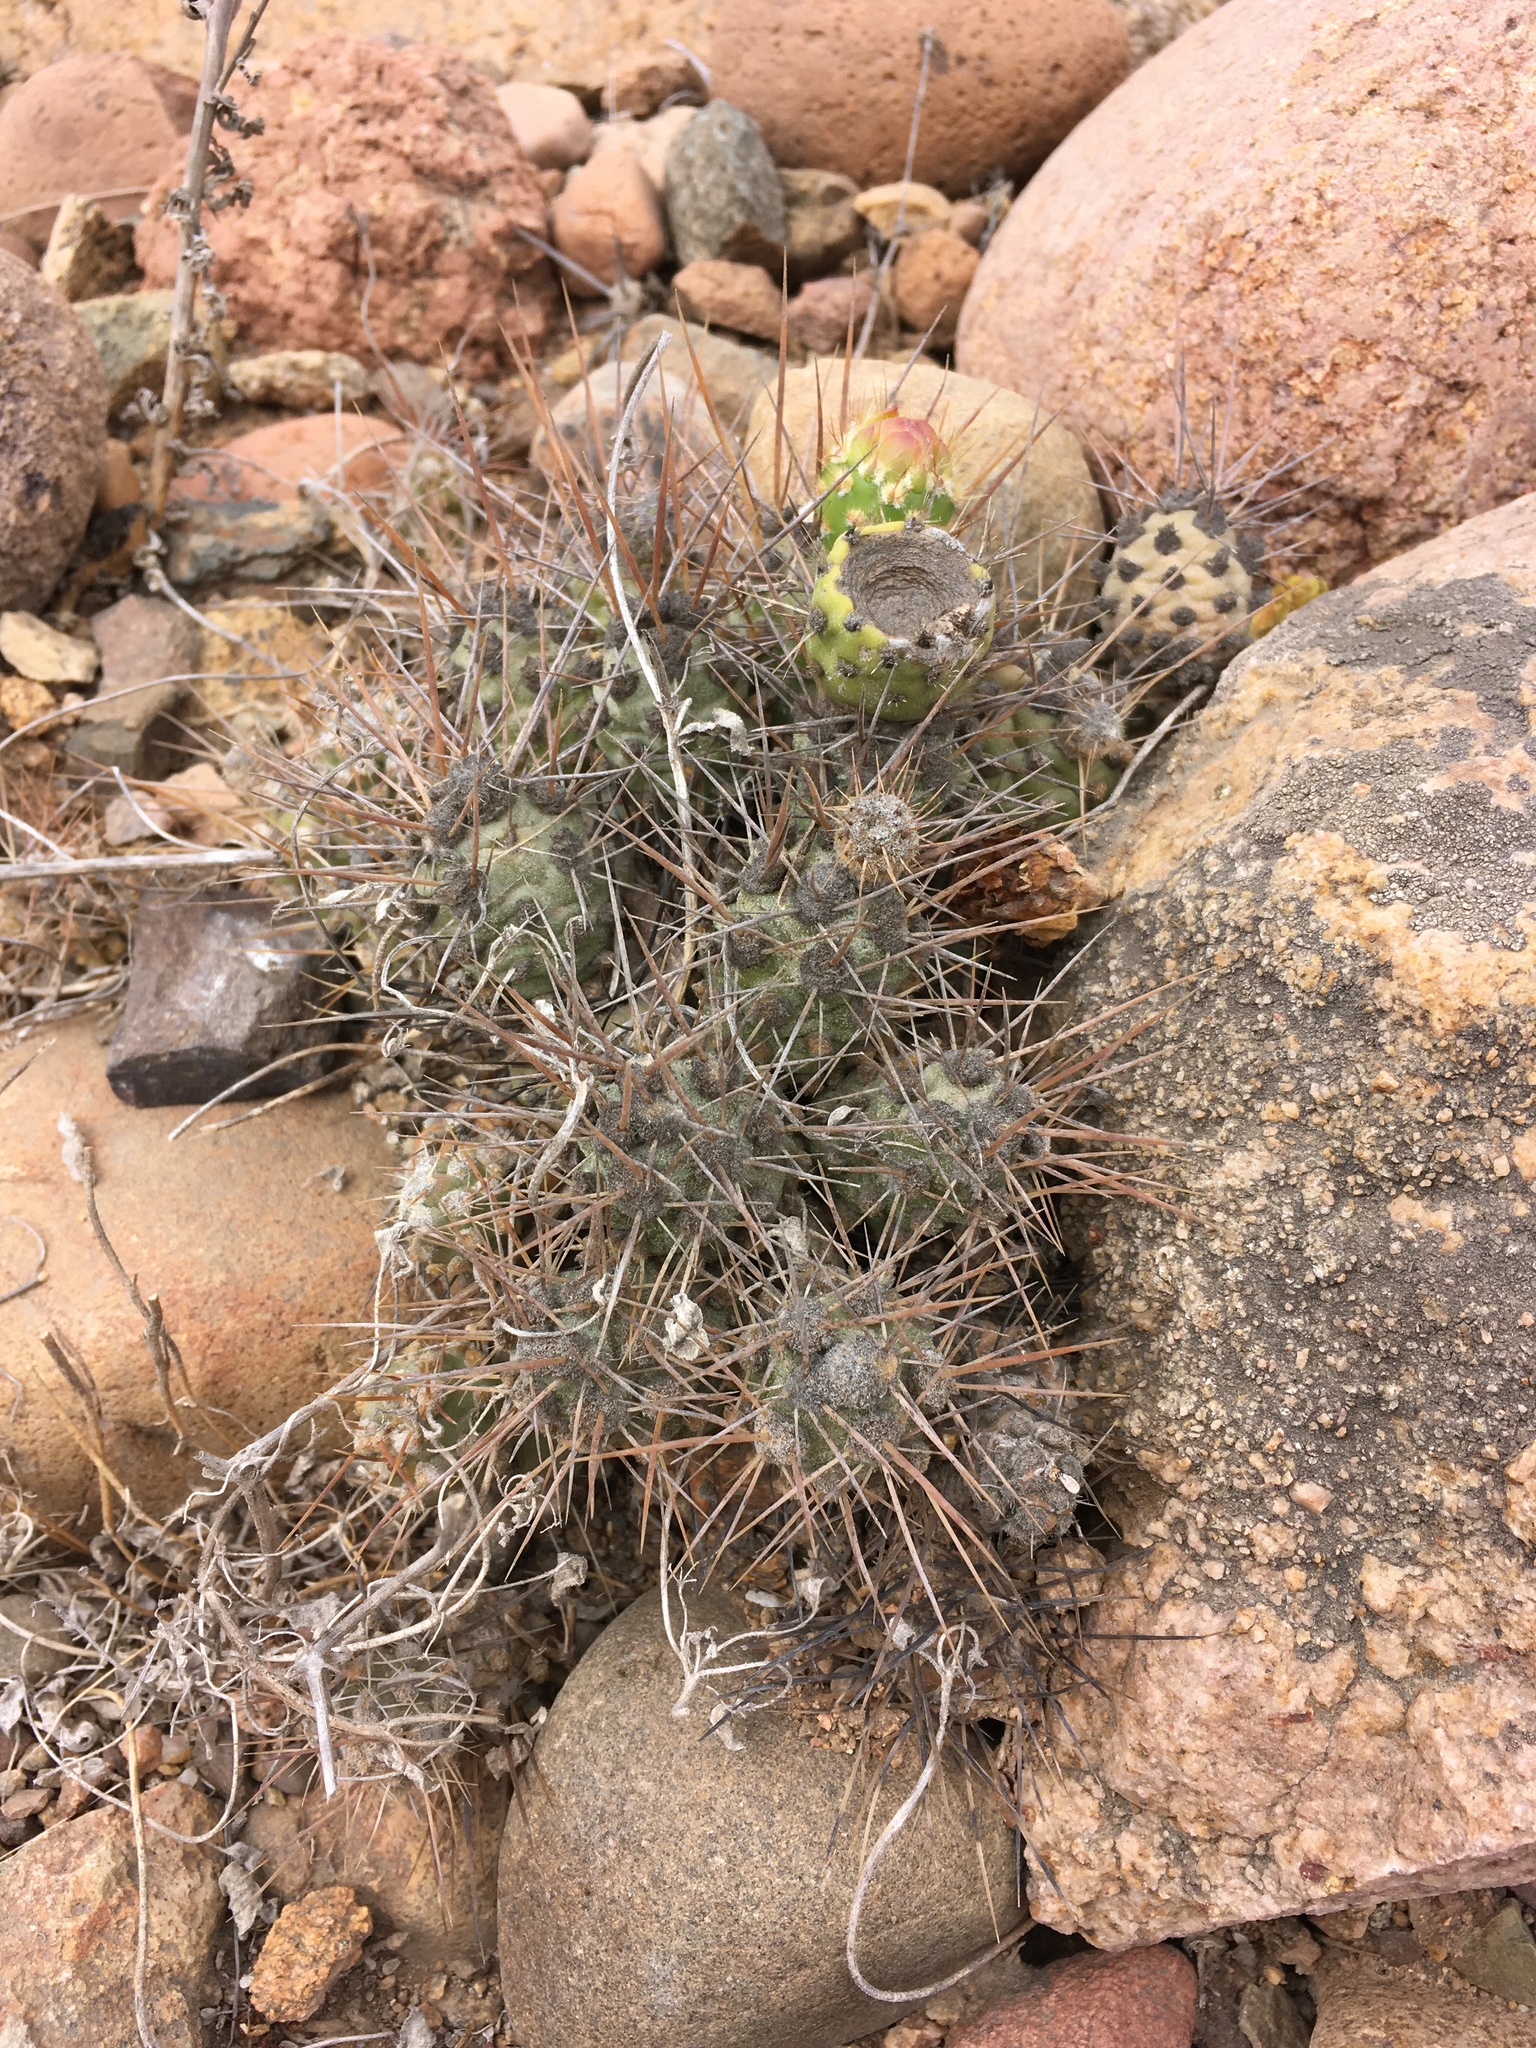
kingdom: Plantae
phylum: Tracheophyta
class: Magnoliopsida
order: Caryophyllales
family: Cactaceae
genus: Cumulopuntia
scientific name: Cumulopuntia leucophaea
